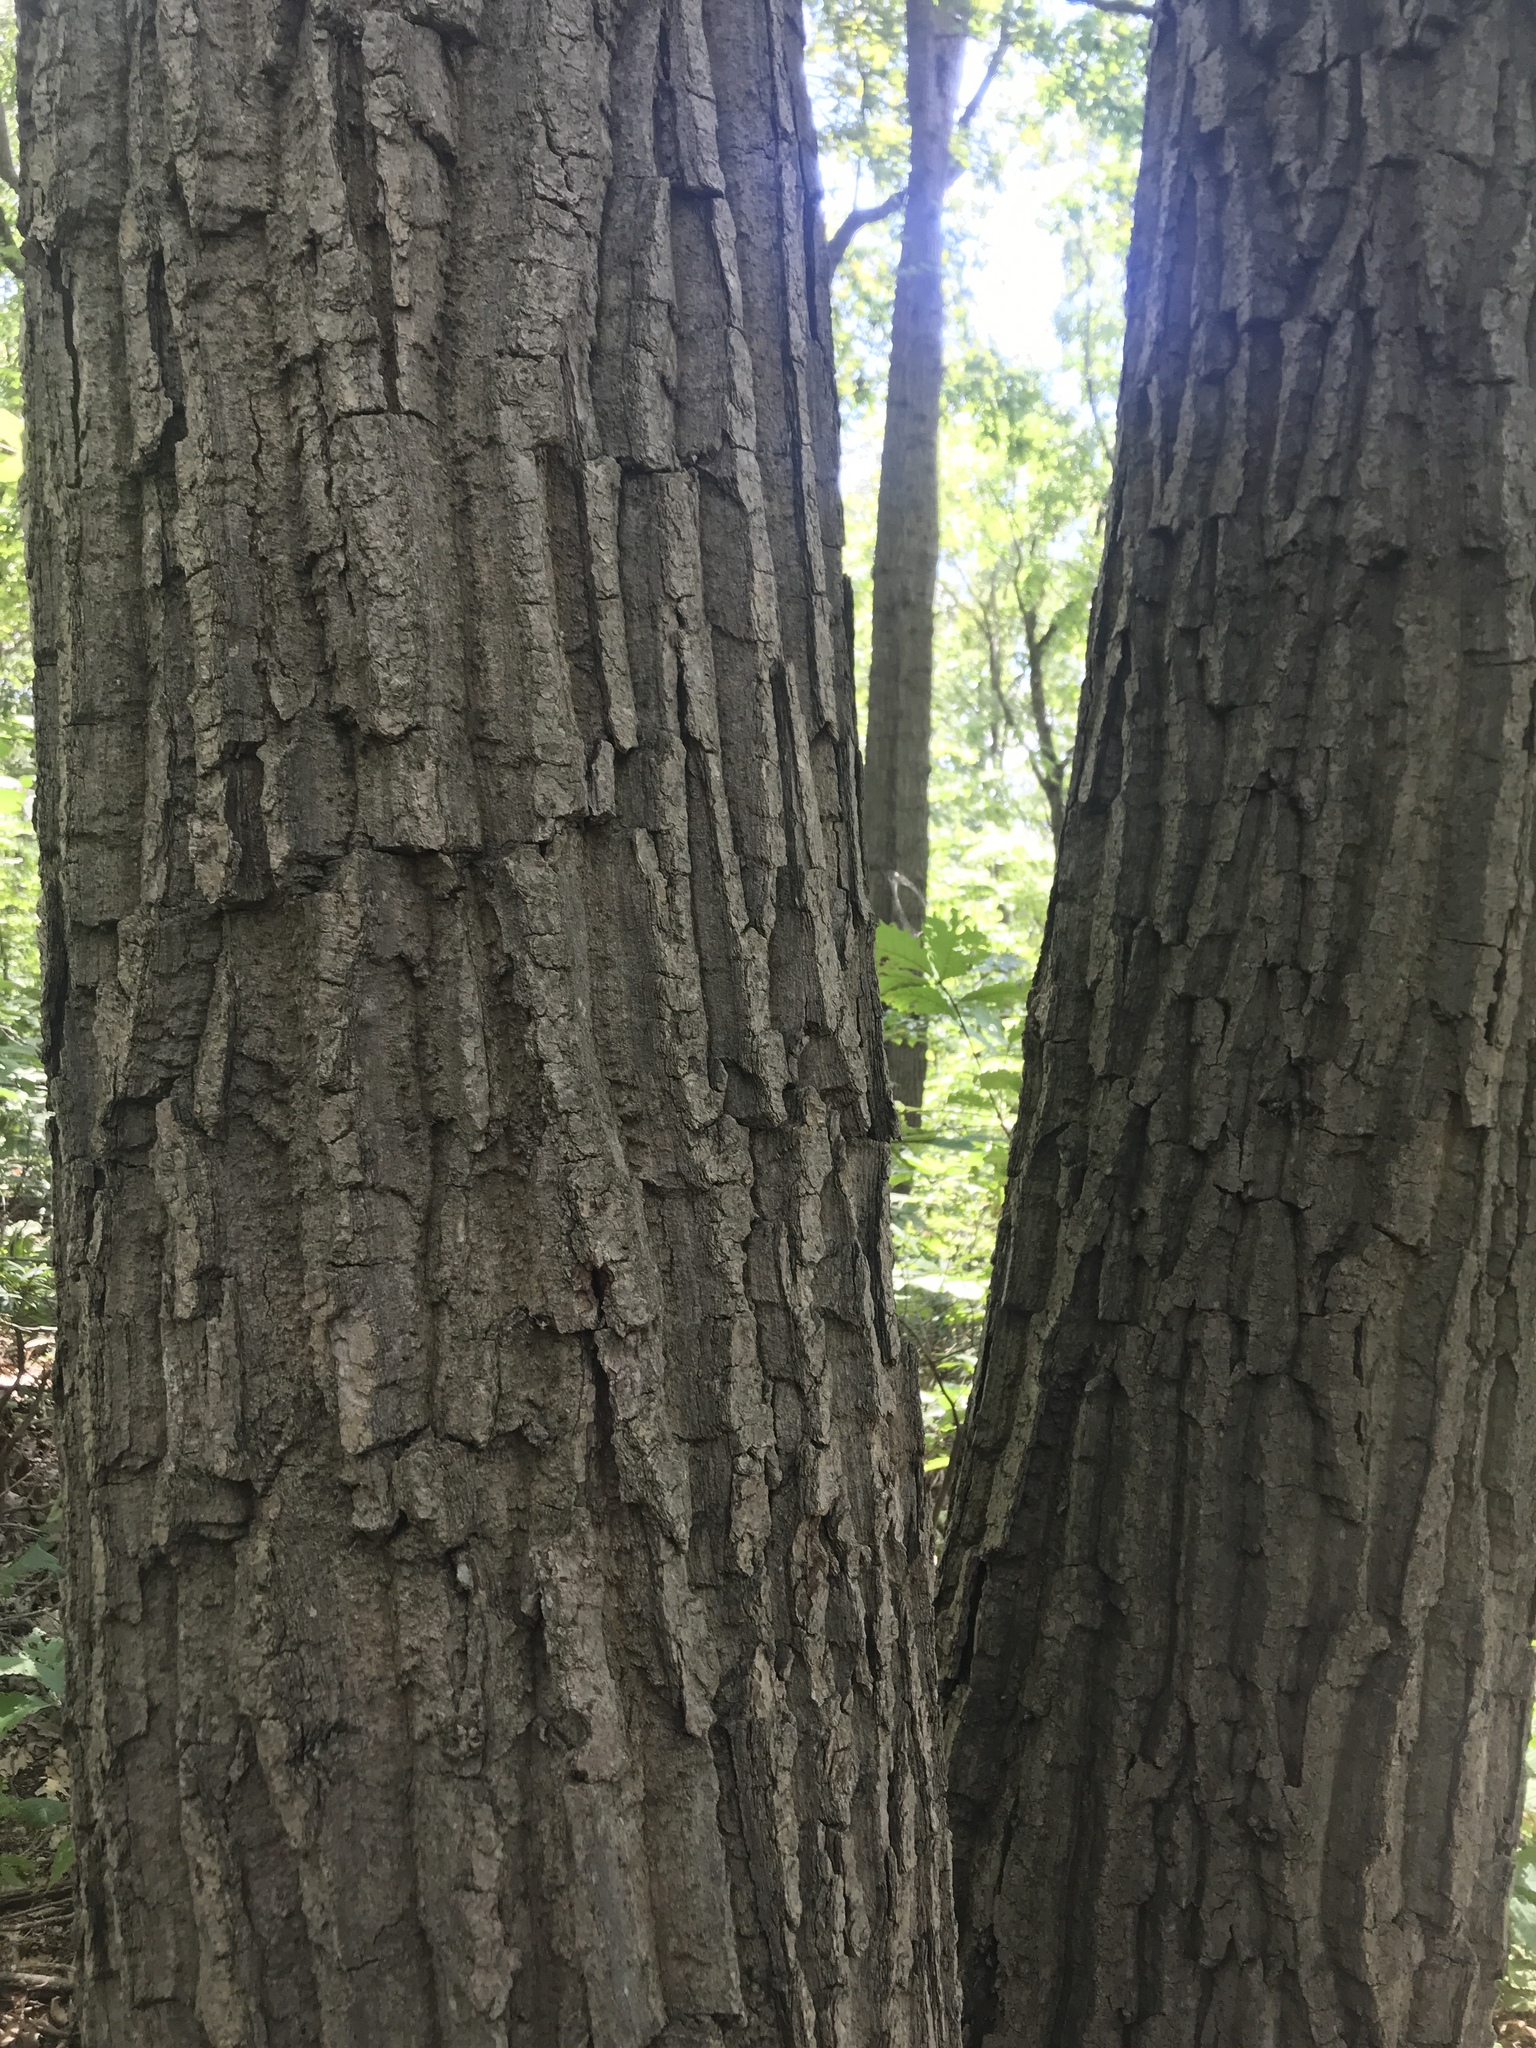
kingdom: Plantae
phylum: Tracheophyta
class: Magnoliopsida
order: Fagales
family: Fagaceae
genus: Quercus
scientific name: Quercus montana
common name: Chestnut oak
